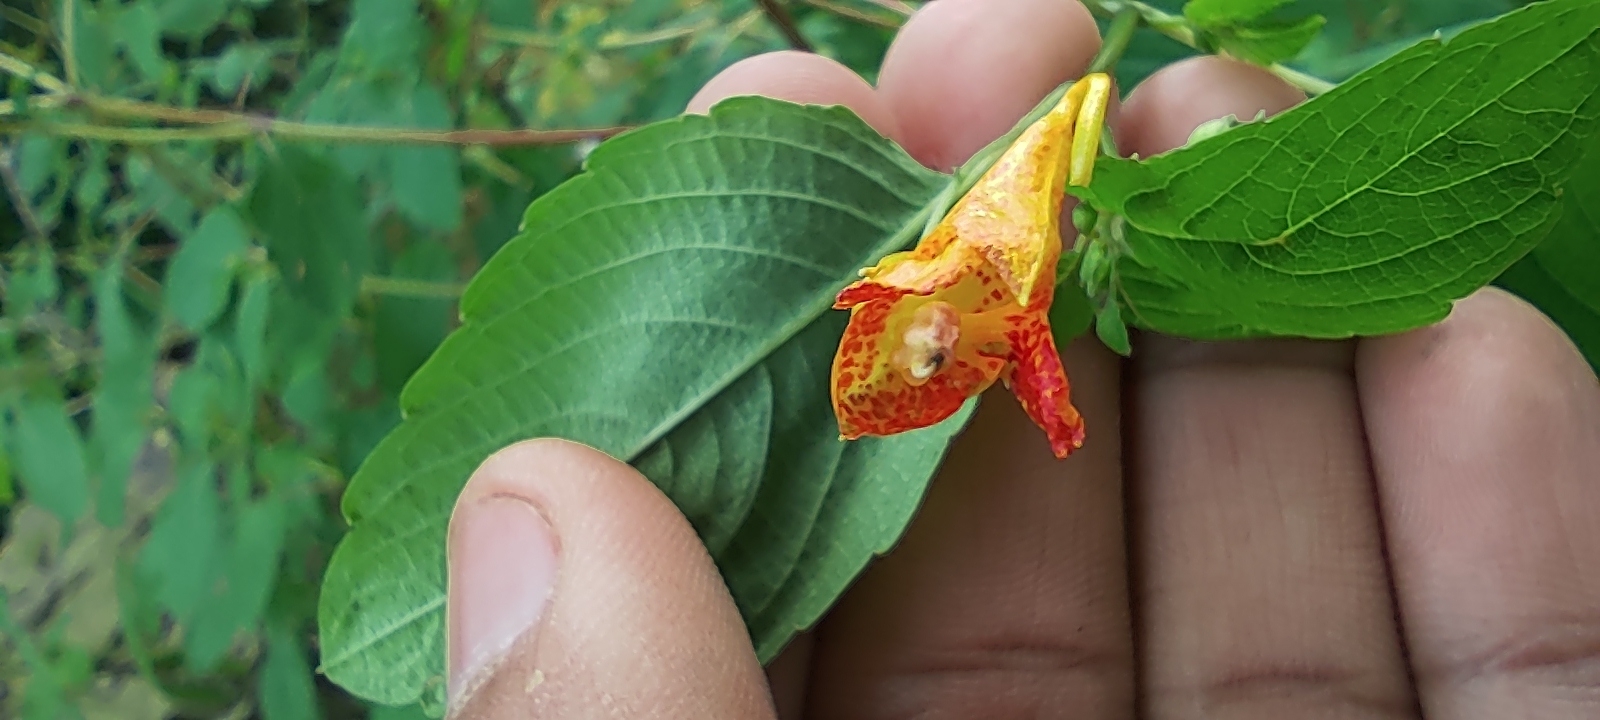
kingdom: Plantae
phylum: Tracheophyta
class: Magnoliopsida
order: Ericales
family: Balsaminaceae
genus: Impatiens
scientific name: Impatiens capensis
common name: Orange balsam
